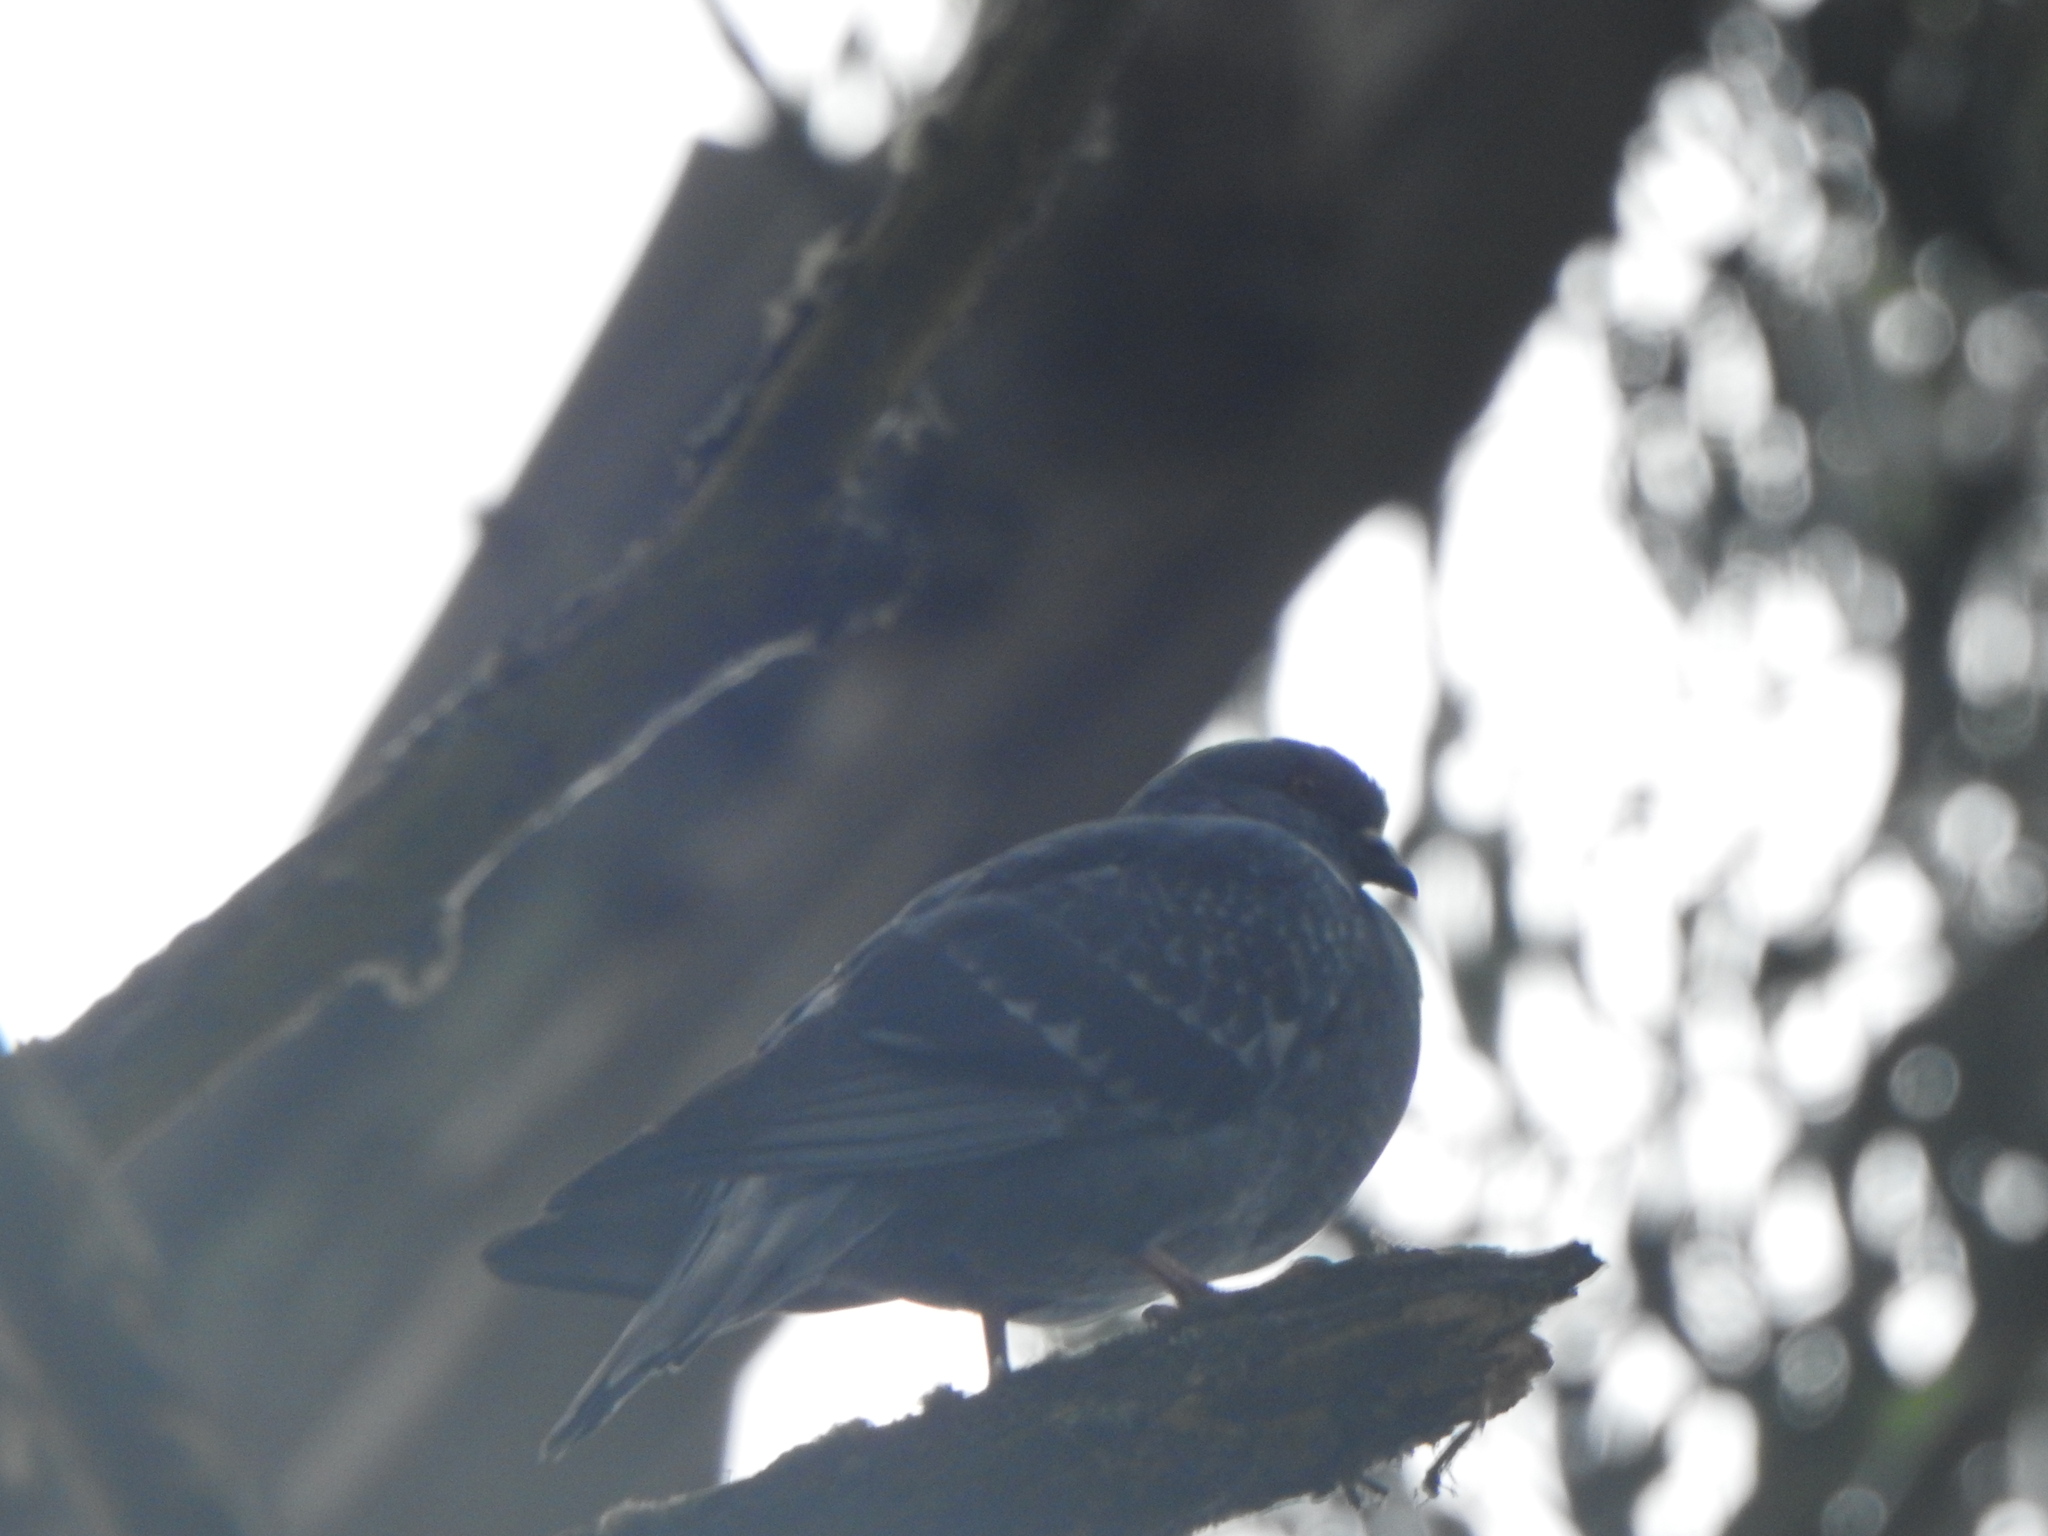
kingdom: Animalia
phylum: Chordata
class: Aves
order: Columbiformes
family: Columbidae
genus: Columba
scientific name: Columba livia
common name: Rock pigeon
